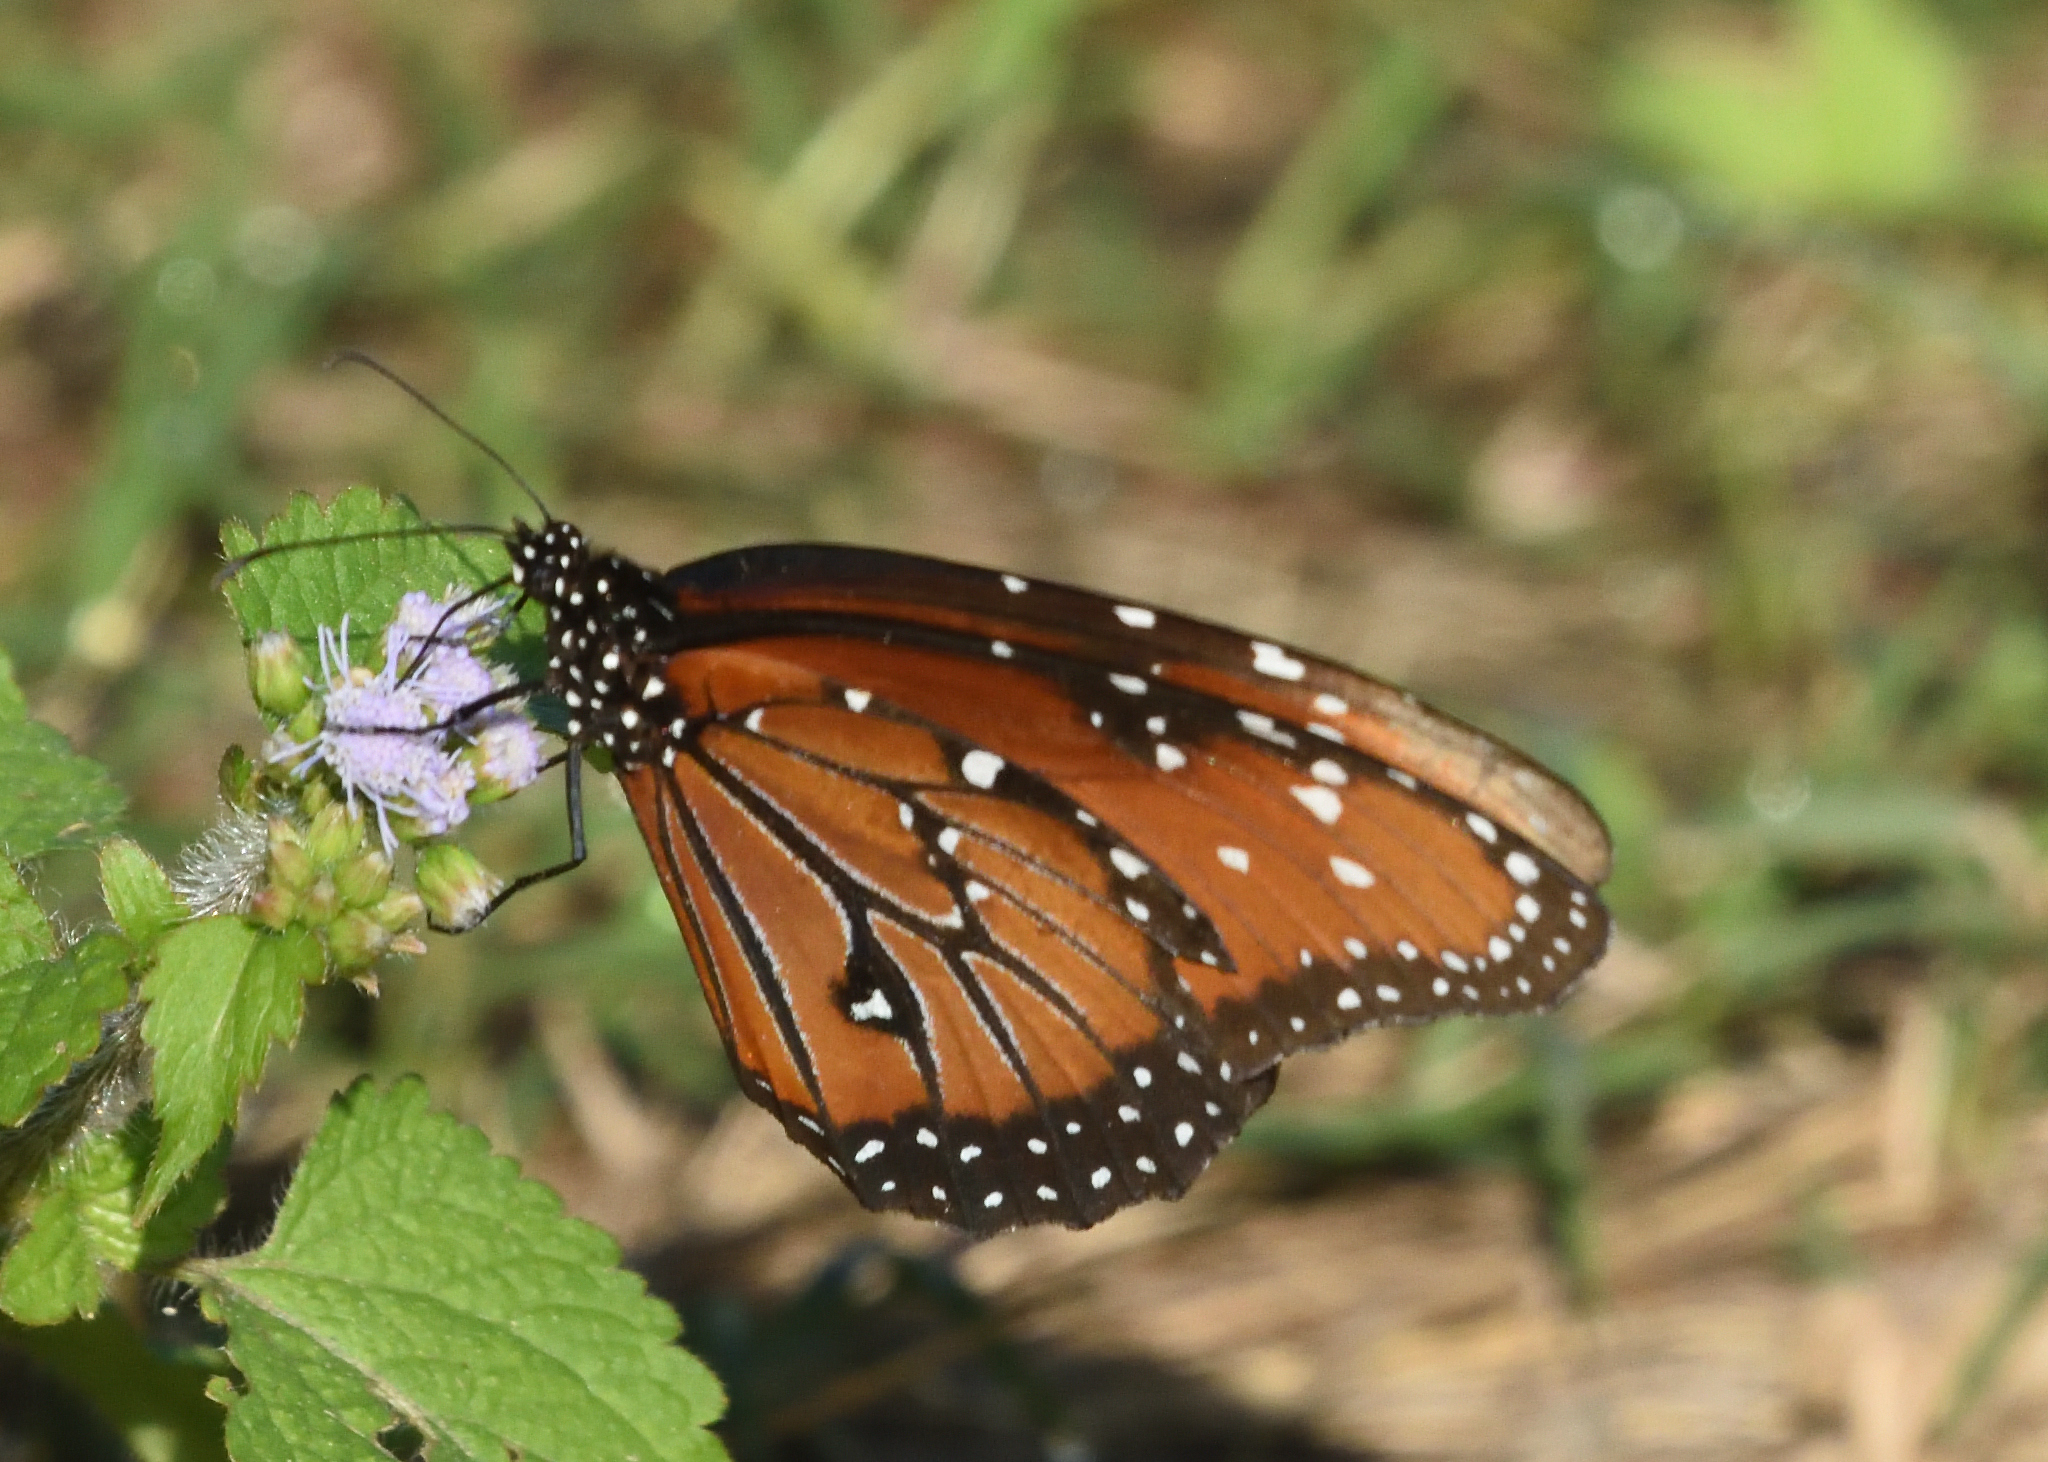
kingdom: Animalia
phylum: Arthropoda
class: Insecta
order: Lepidoptera
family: Nymphalidae
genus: Danaus
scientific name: Danaus gilippus
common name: Queen
